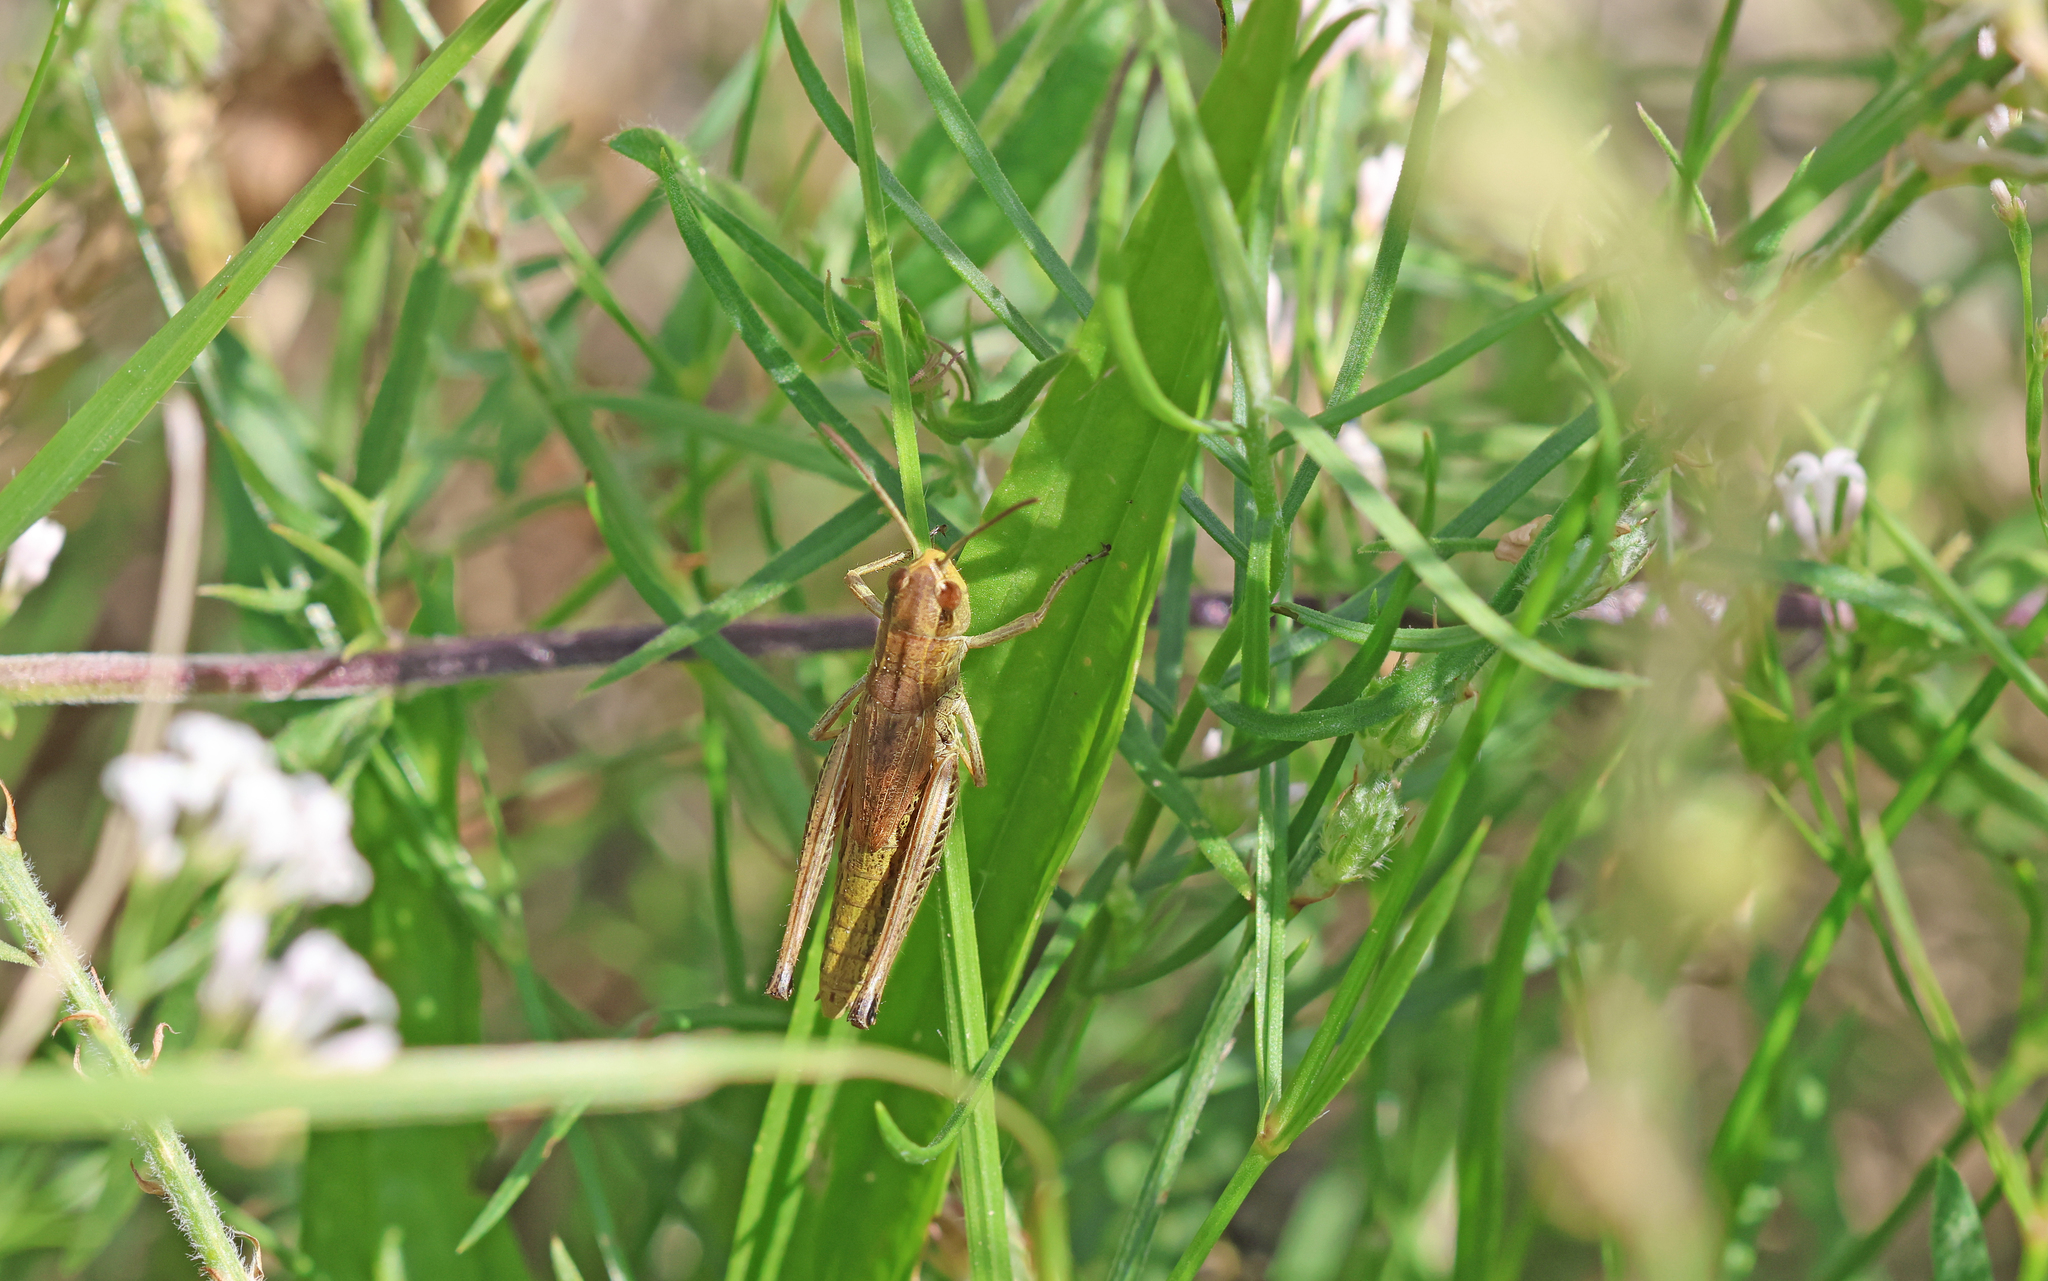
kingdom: Animalia
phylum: Arthropoda
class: Insecta
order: Orthoptera
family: Acrididae
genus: Pseudochorthippus
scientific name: Pseudochorthippus parallelus
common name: Meadow grasshopper
